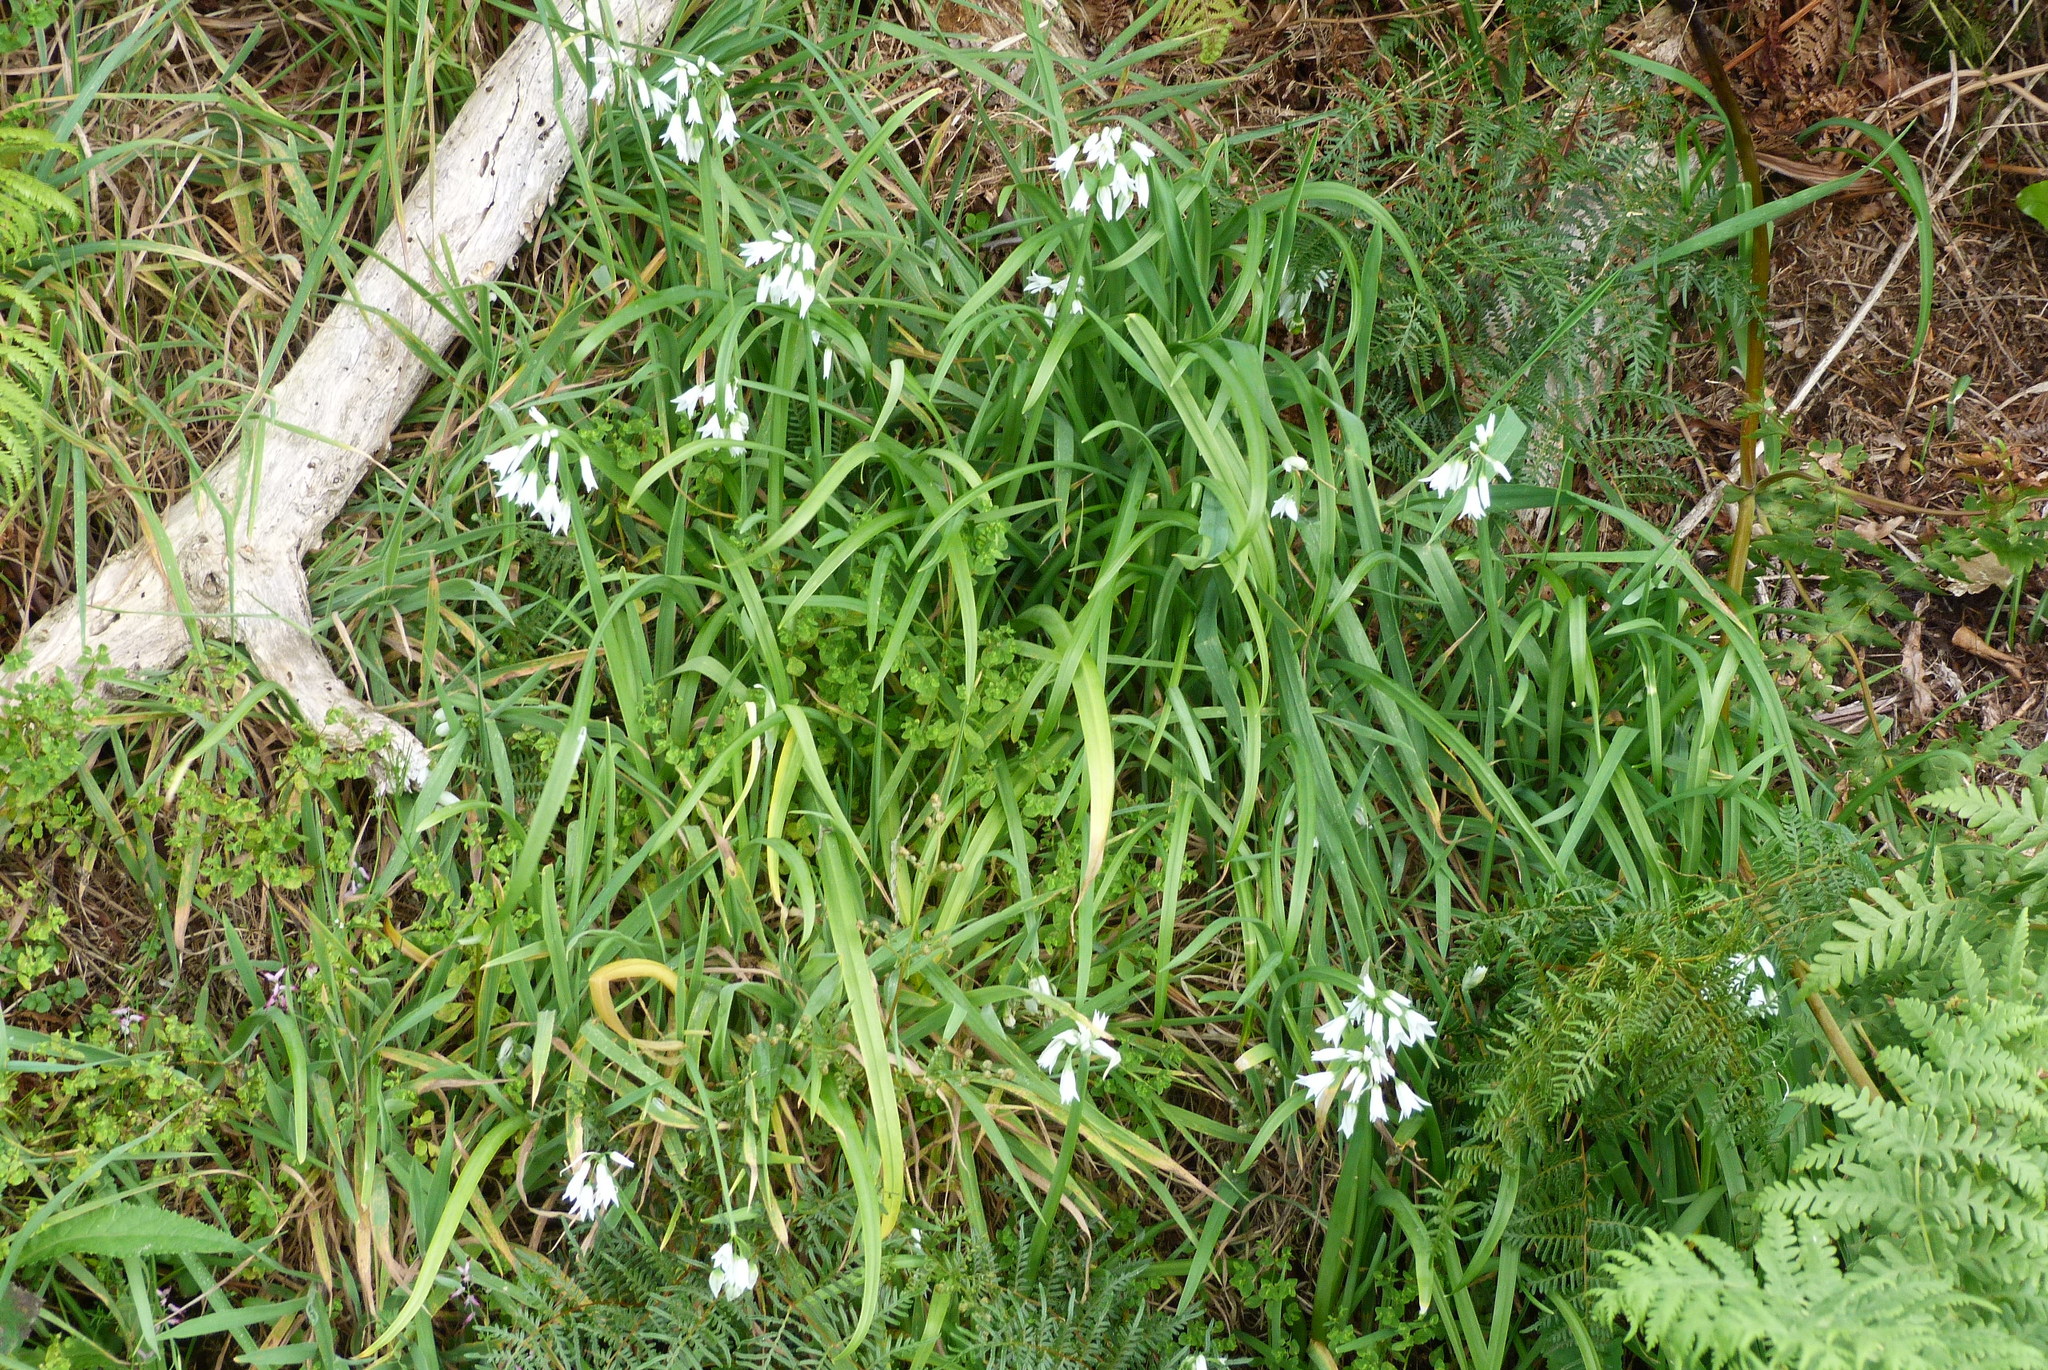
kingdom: Plantae
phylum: Tracheophyta
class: Liliopsida
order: Asparagales
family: Amaryllidaceae
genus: Allium
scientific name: Allium triquetrum
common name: Three-cornered garlic
